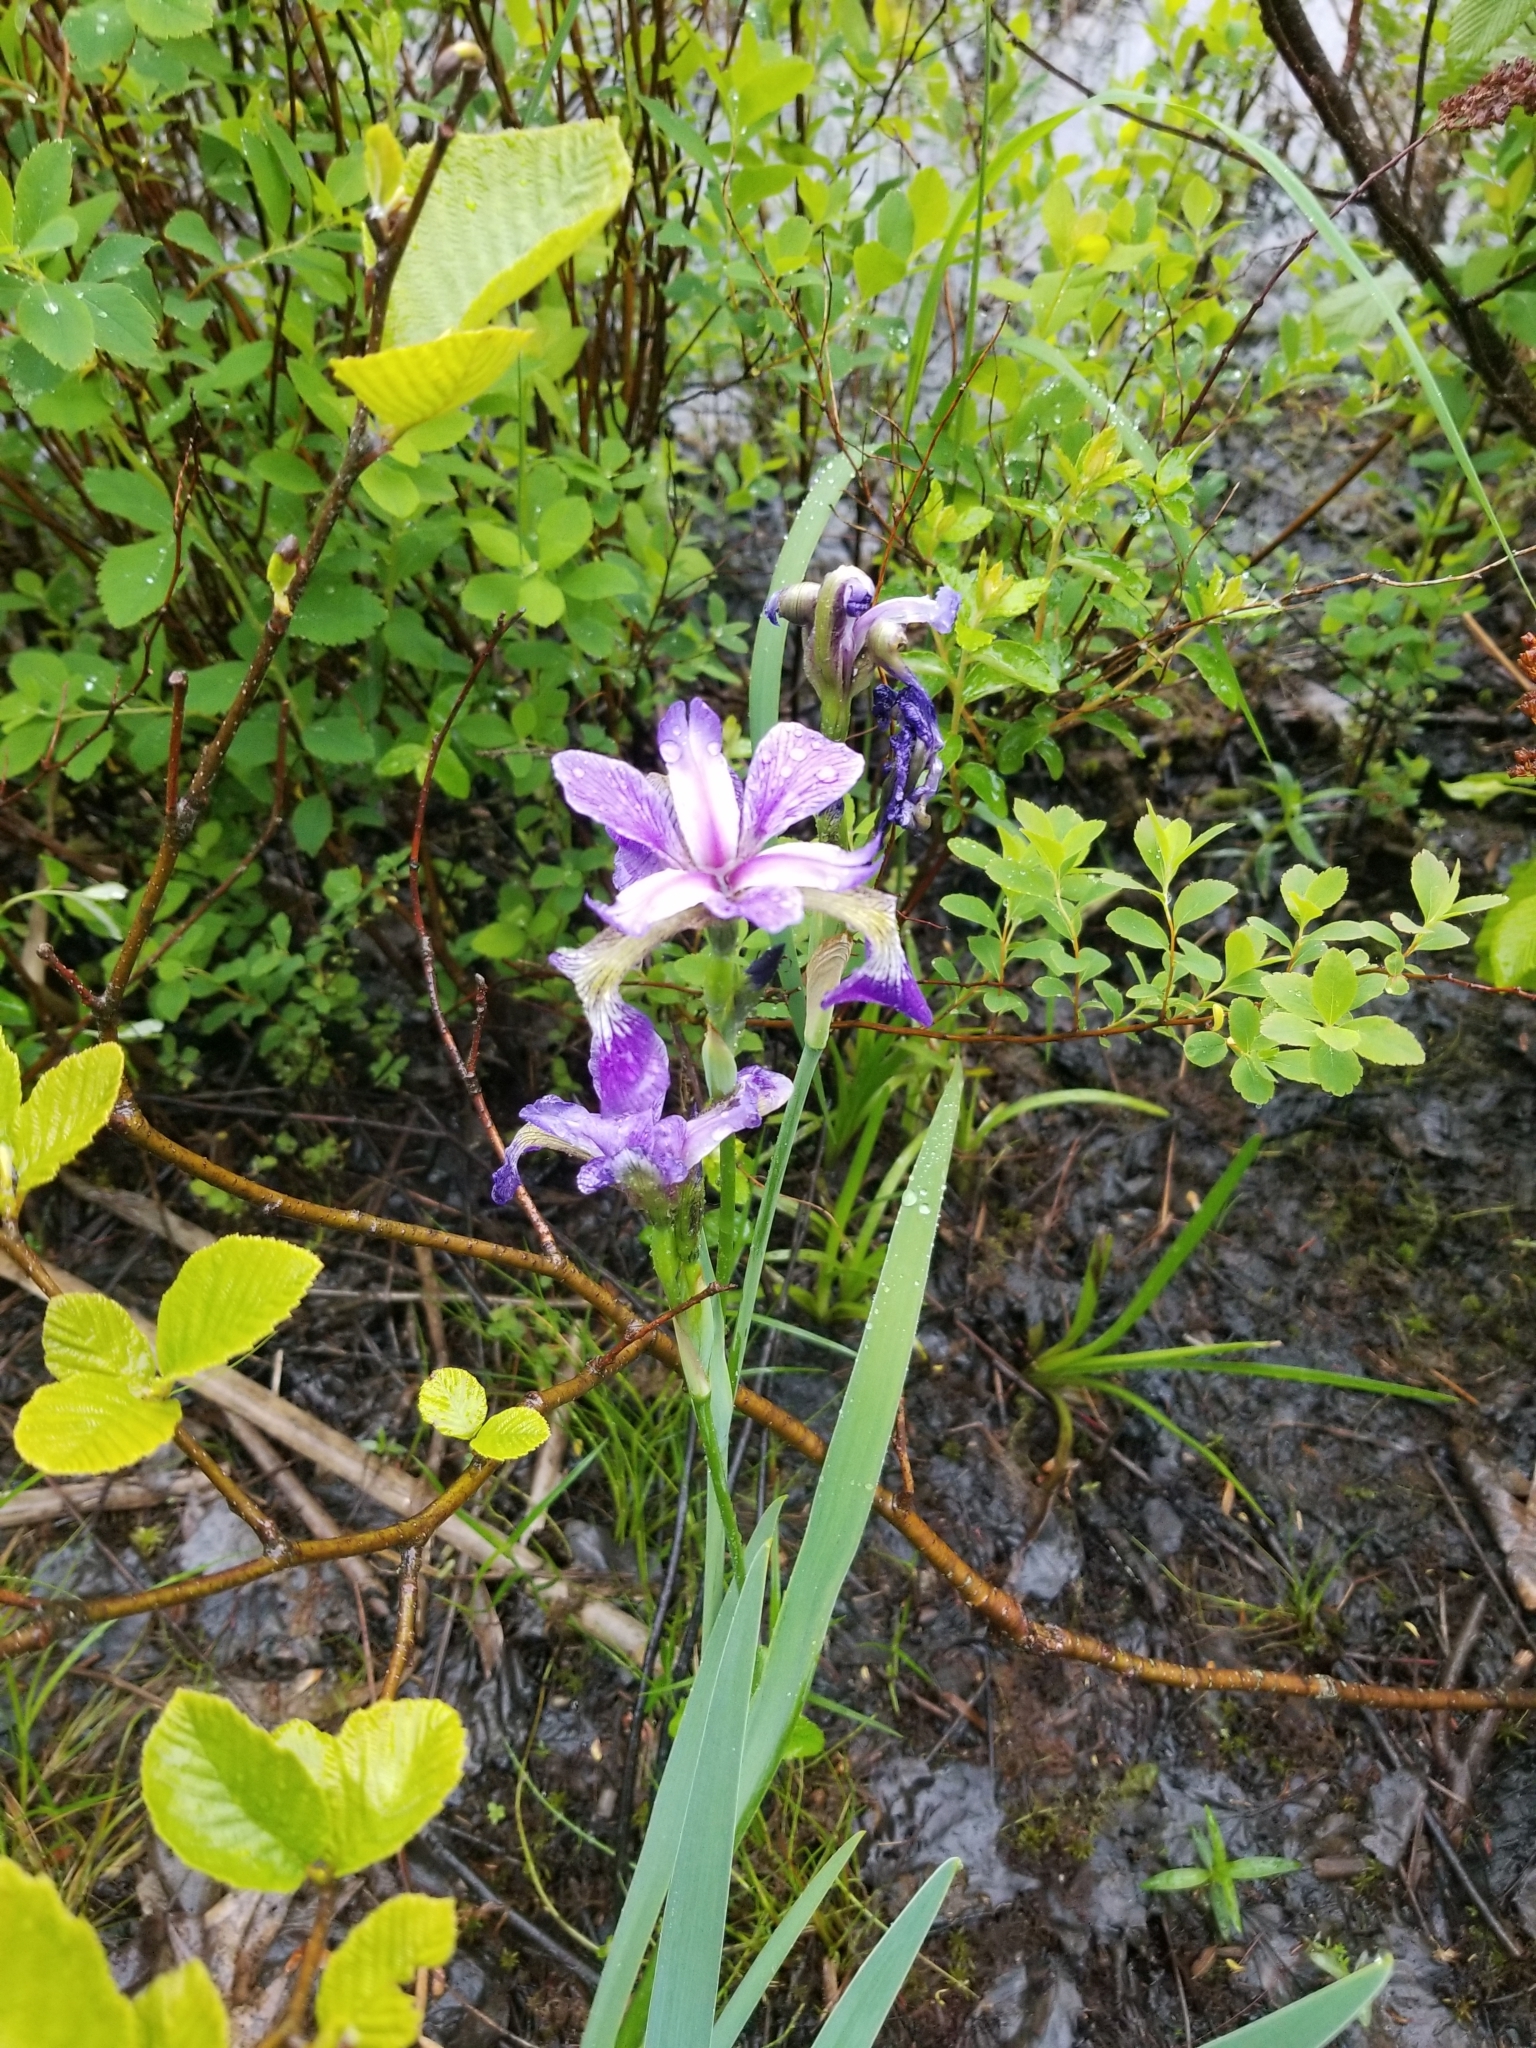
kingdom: Plantae
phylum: Tracheophyta
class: Liliopsida
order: Asparagales
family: Iridaceae
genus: Iris
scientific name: Iris versicolor
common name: Purple iris
